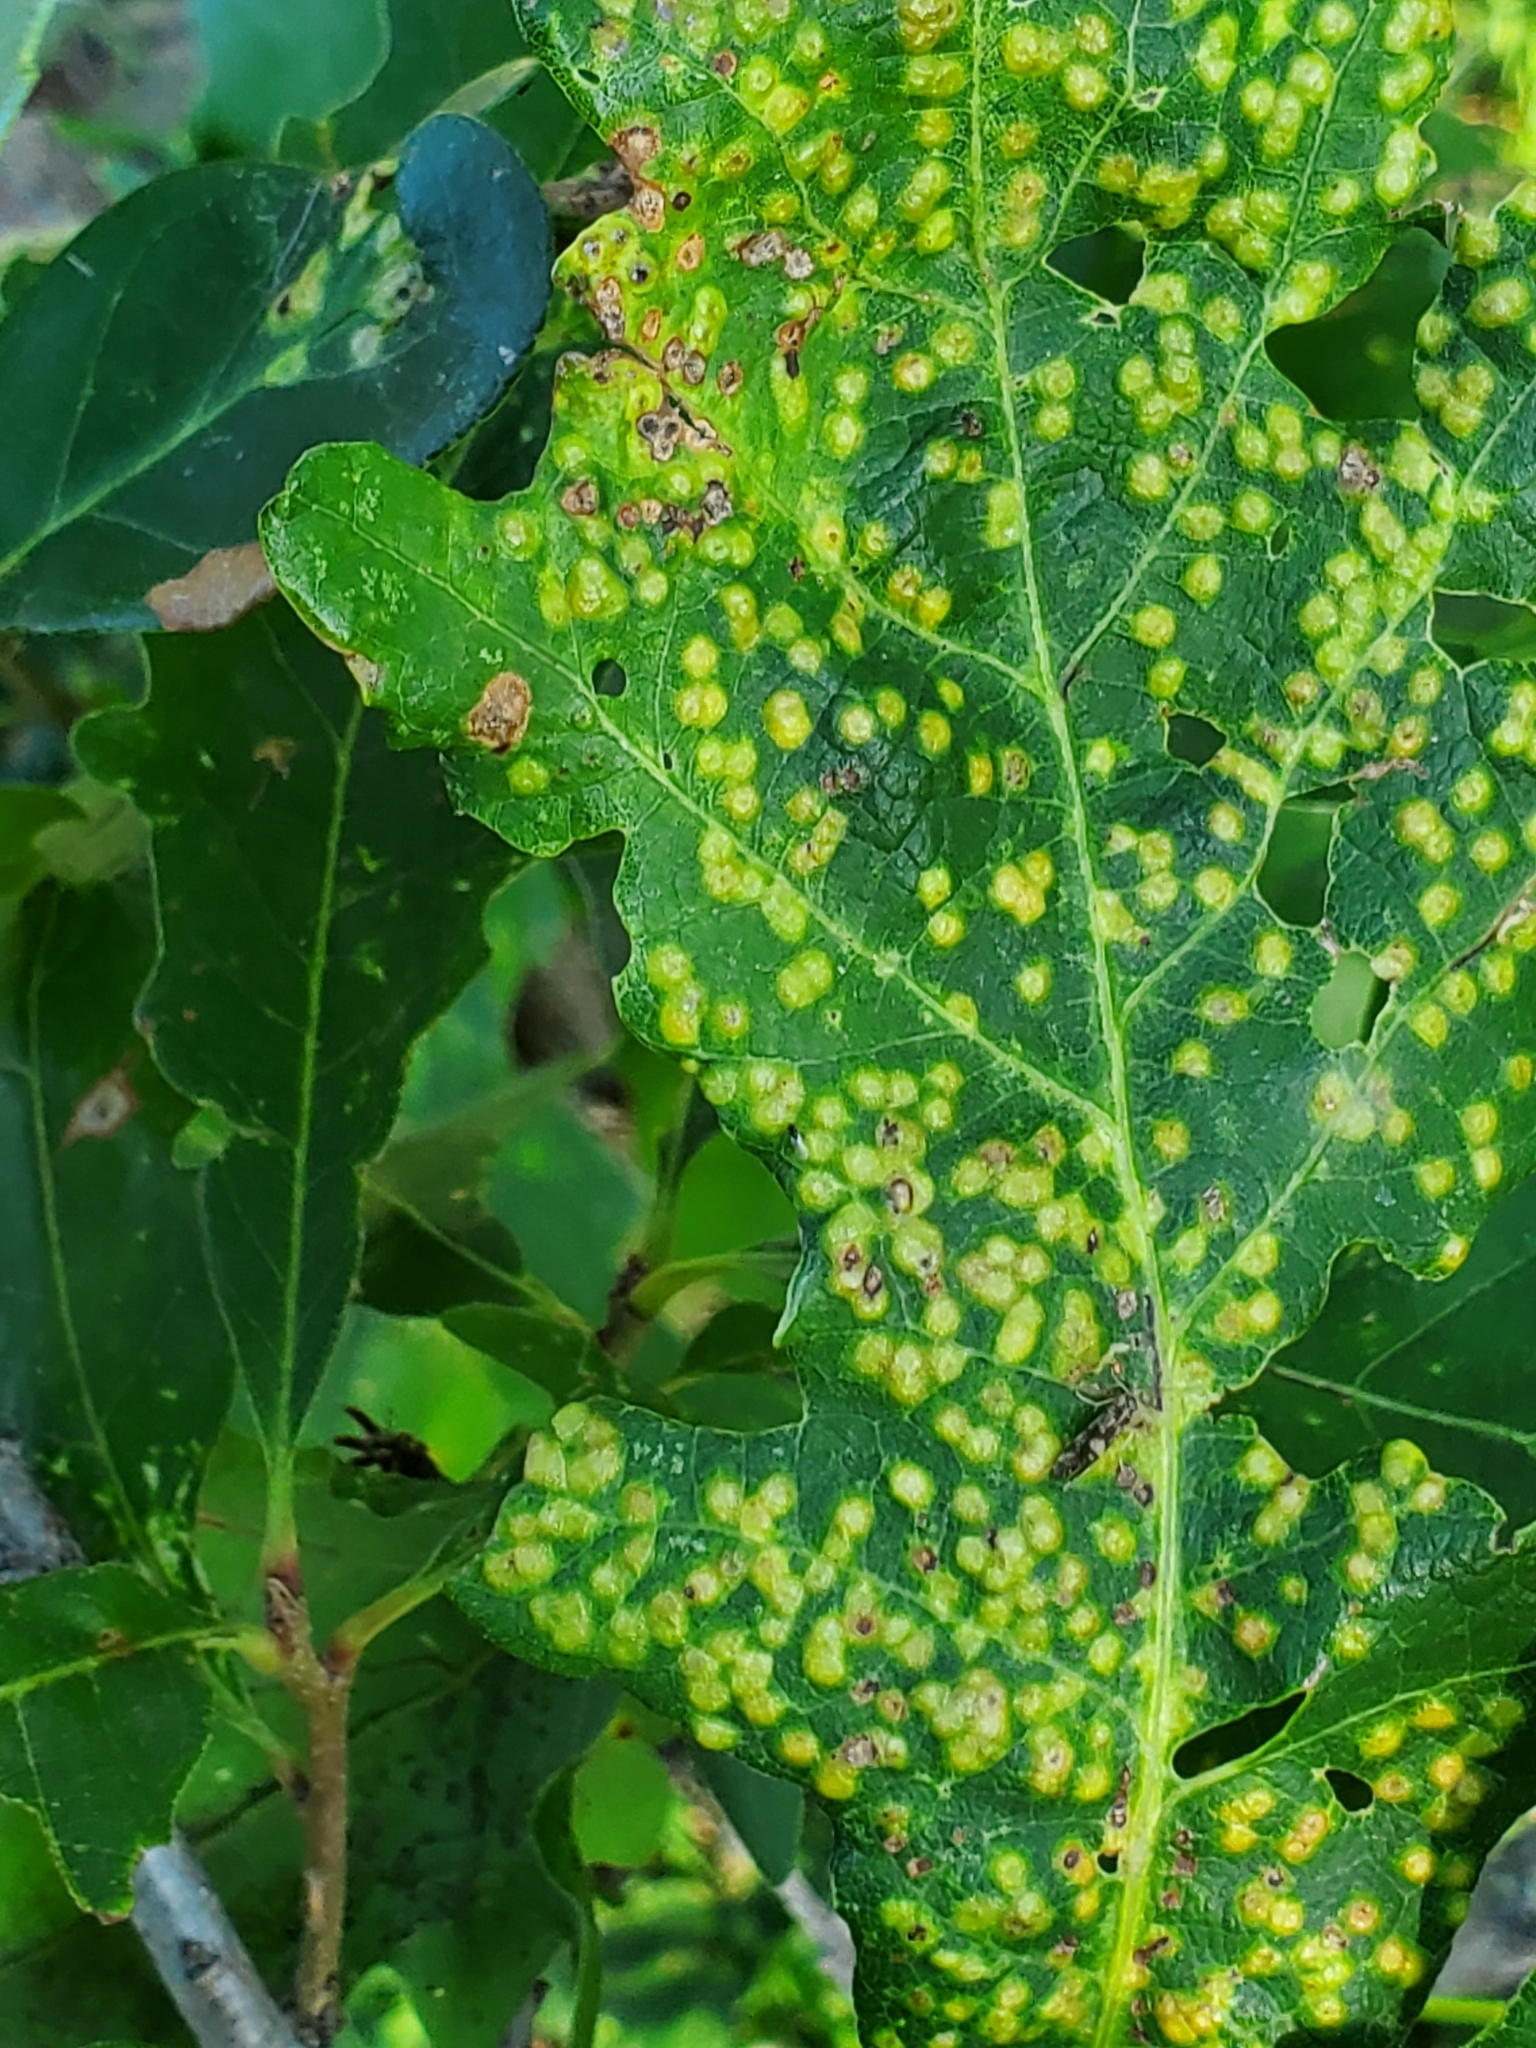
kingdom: Animalia
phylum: Arthropoda
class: Insecta
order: Hymenoptera
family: Cynipidae
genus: Neuroterus
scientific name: Neuroterus saltarius
